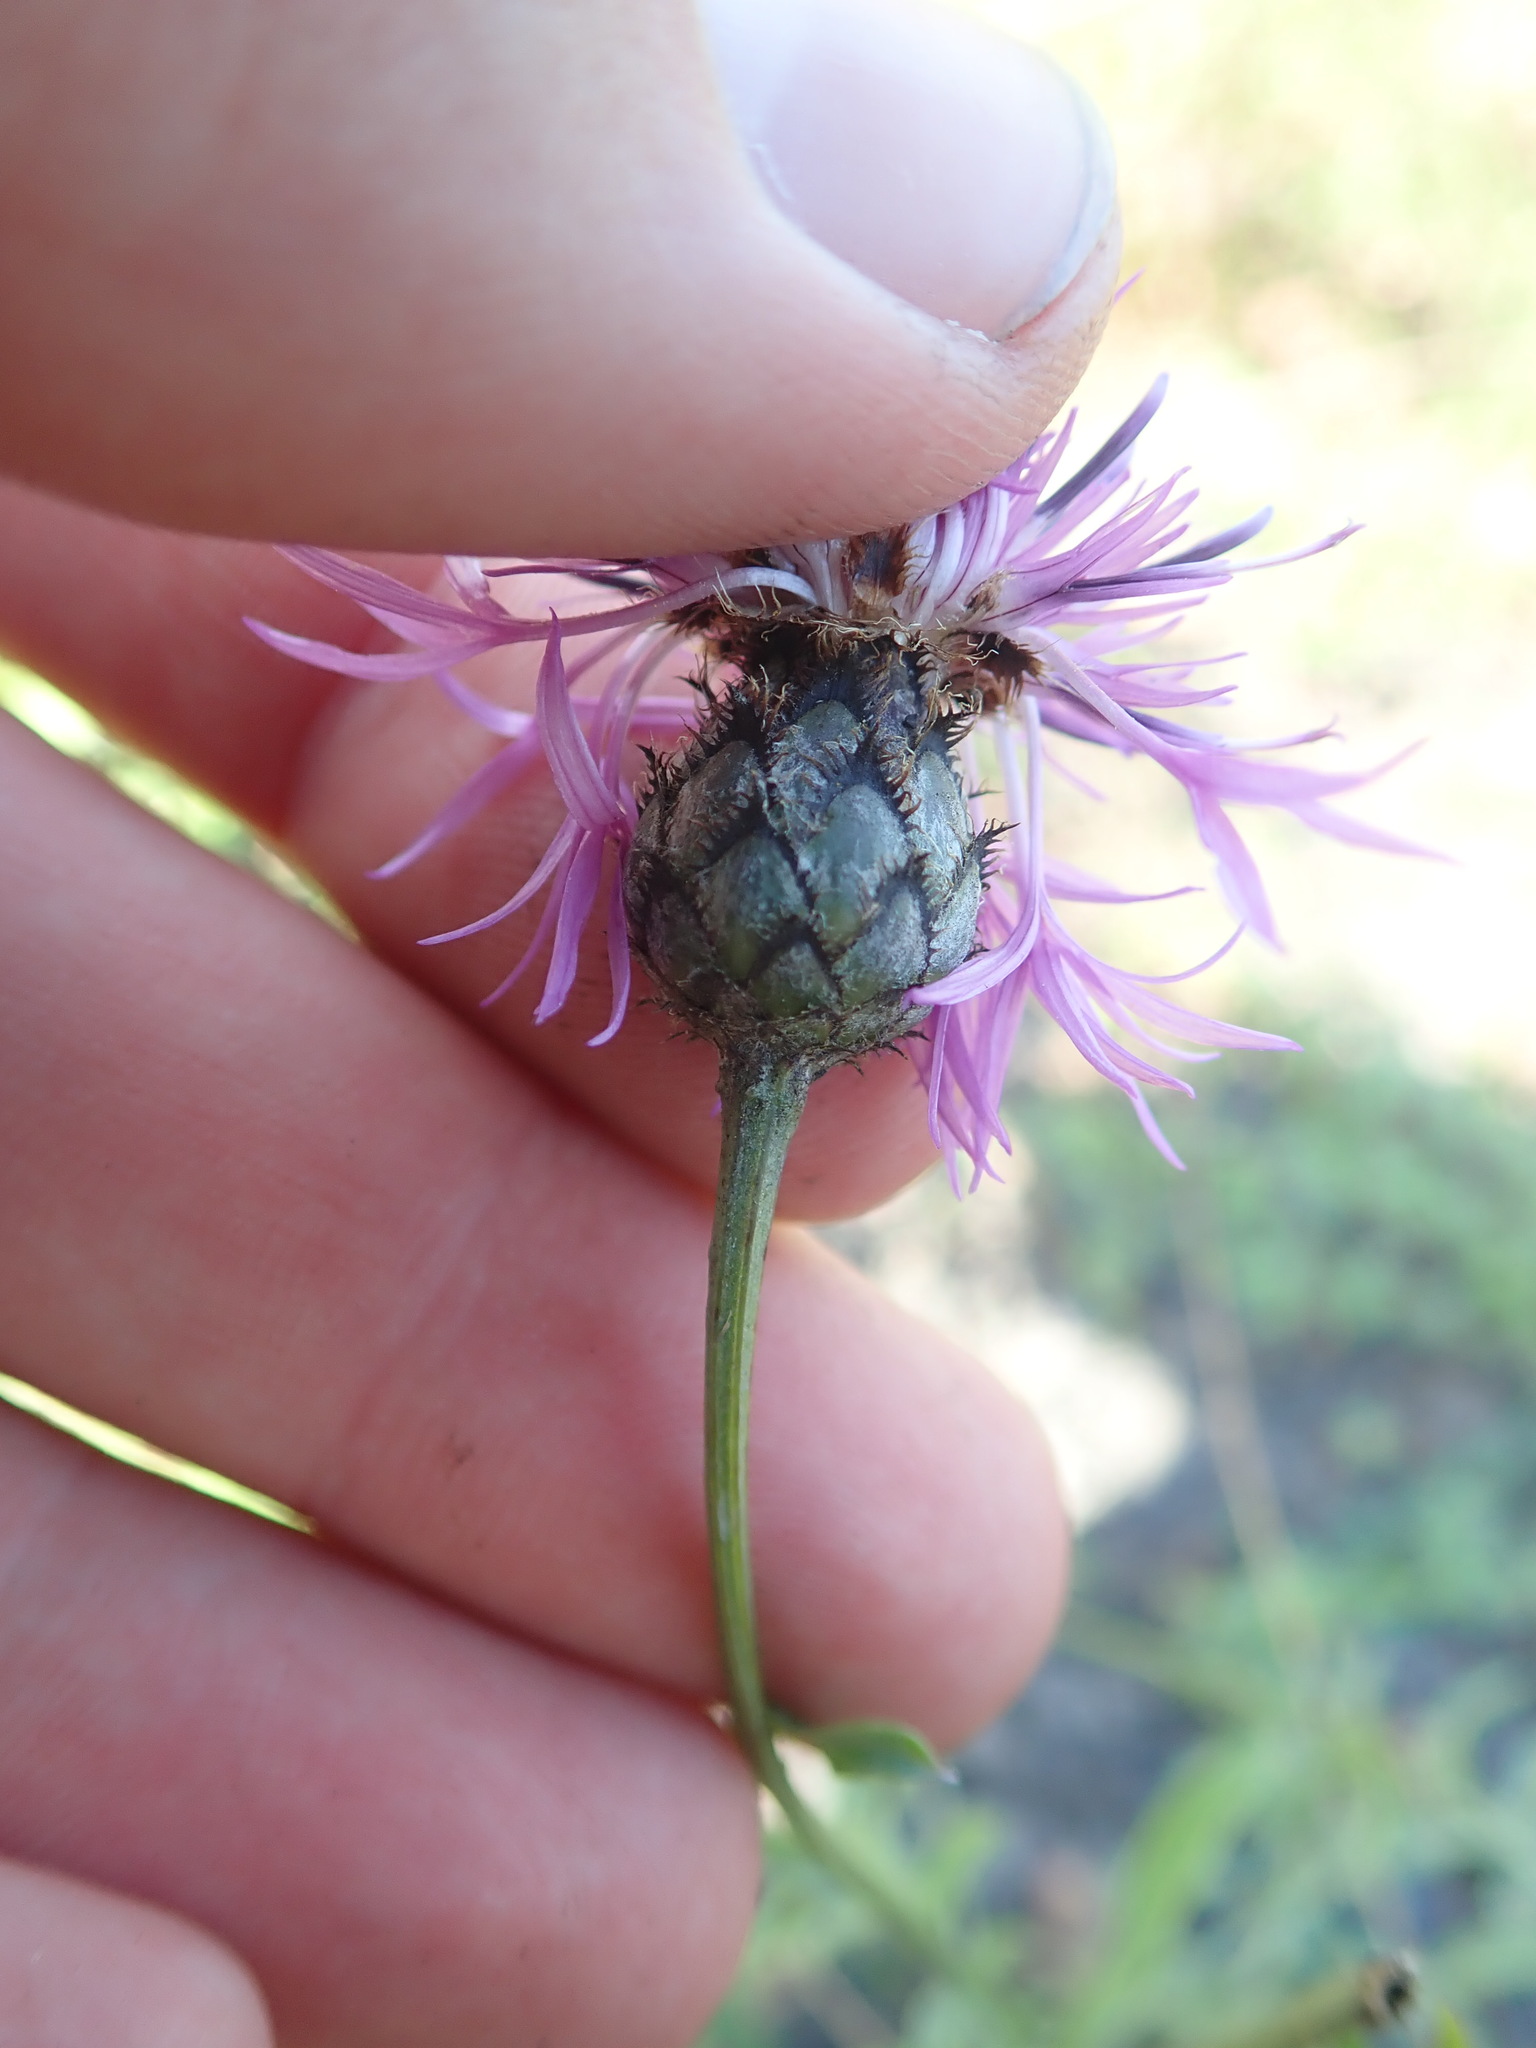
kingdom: Plantae
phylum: Tracheophyta
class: Magnoliopsida
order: Asterales
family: Asteraceae
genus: Centaurea
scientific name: Centaurea scabiosa
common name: Greater knapweed
